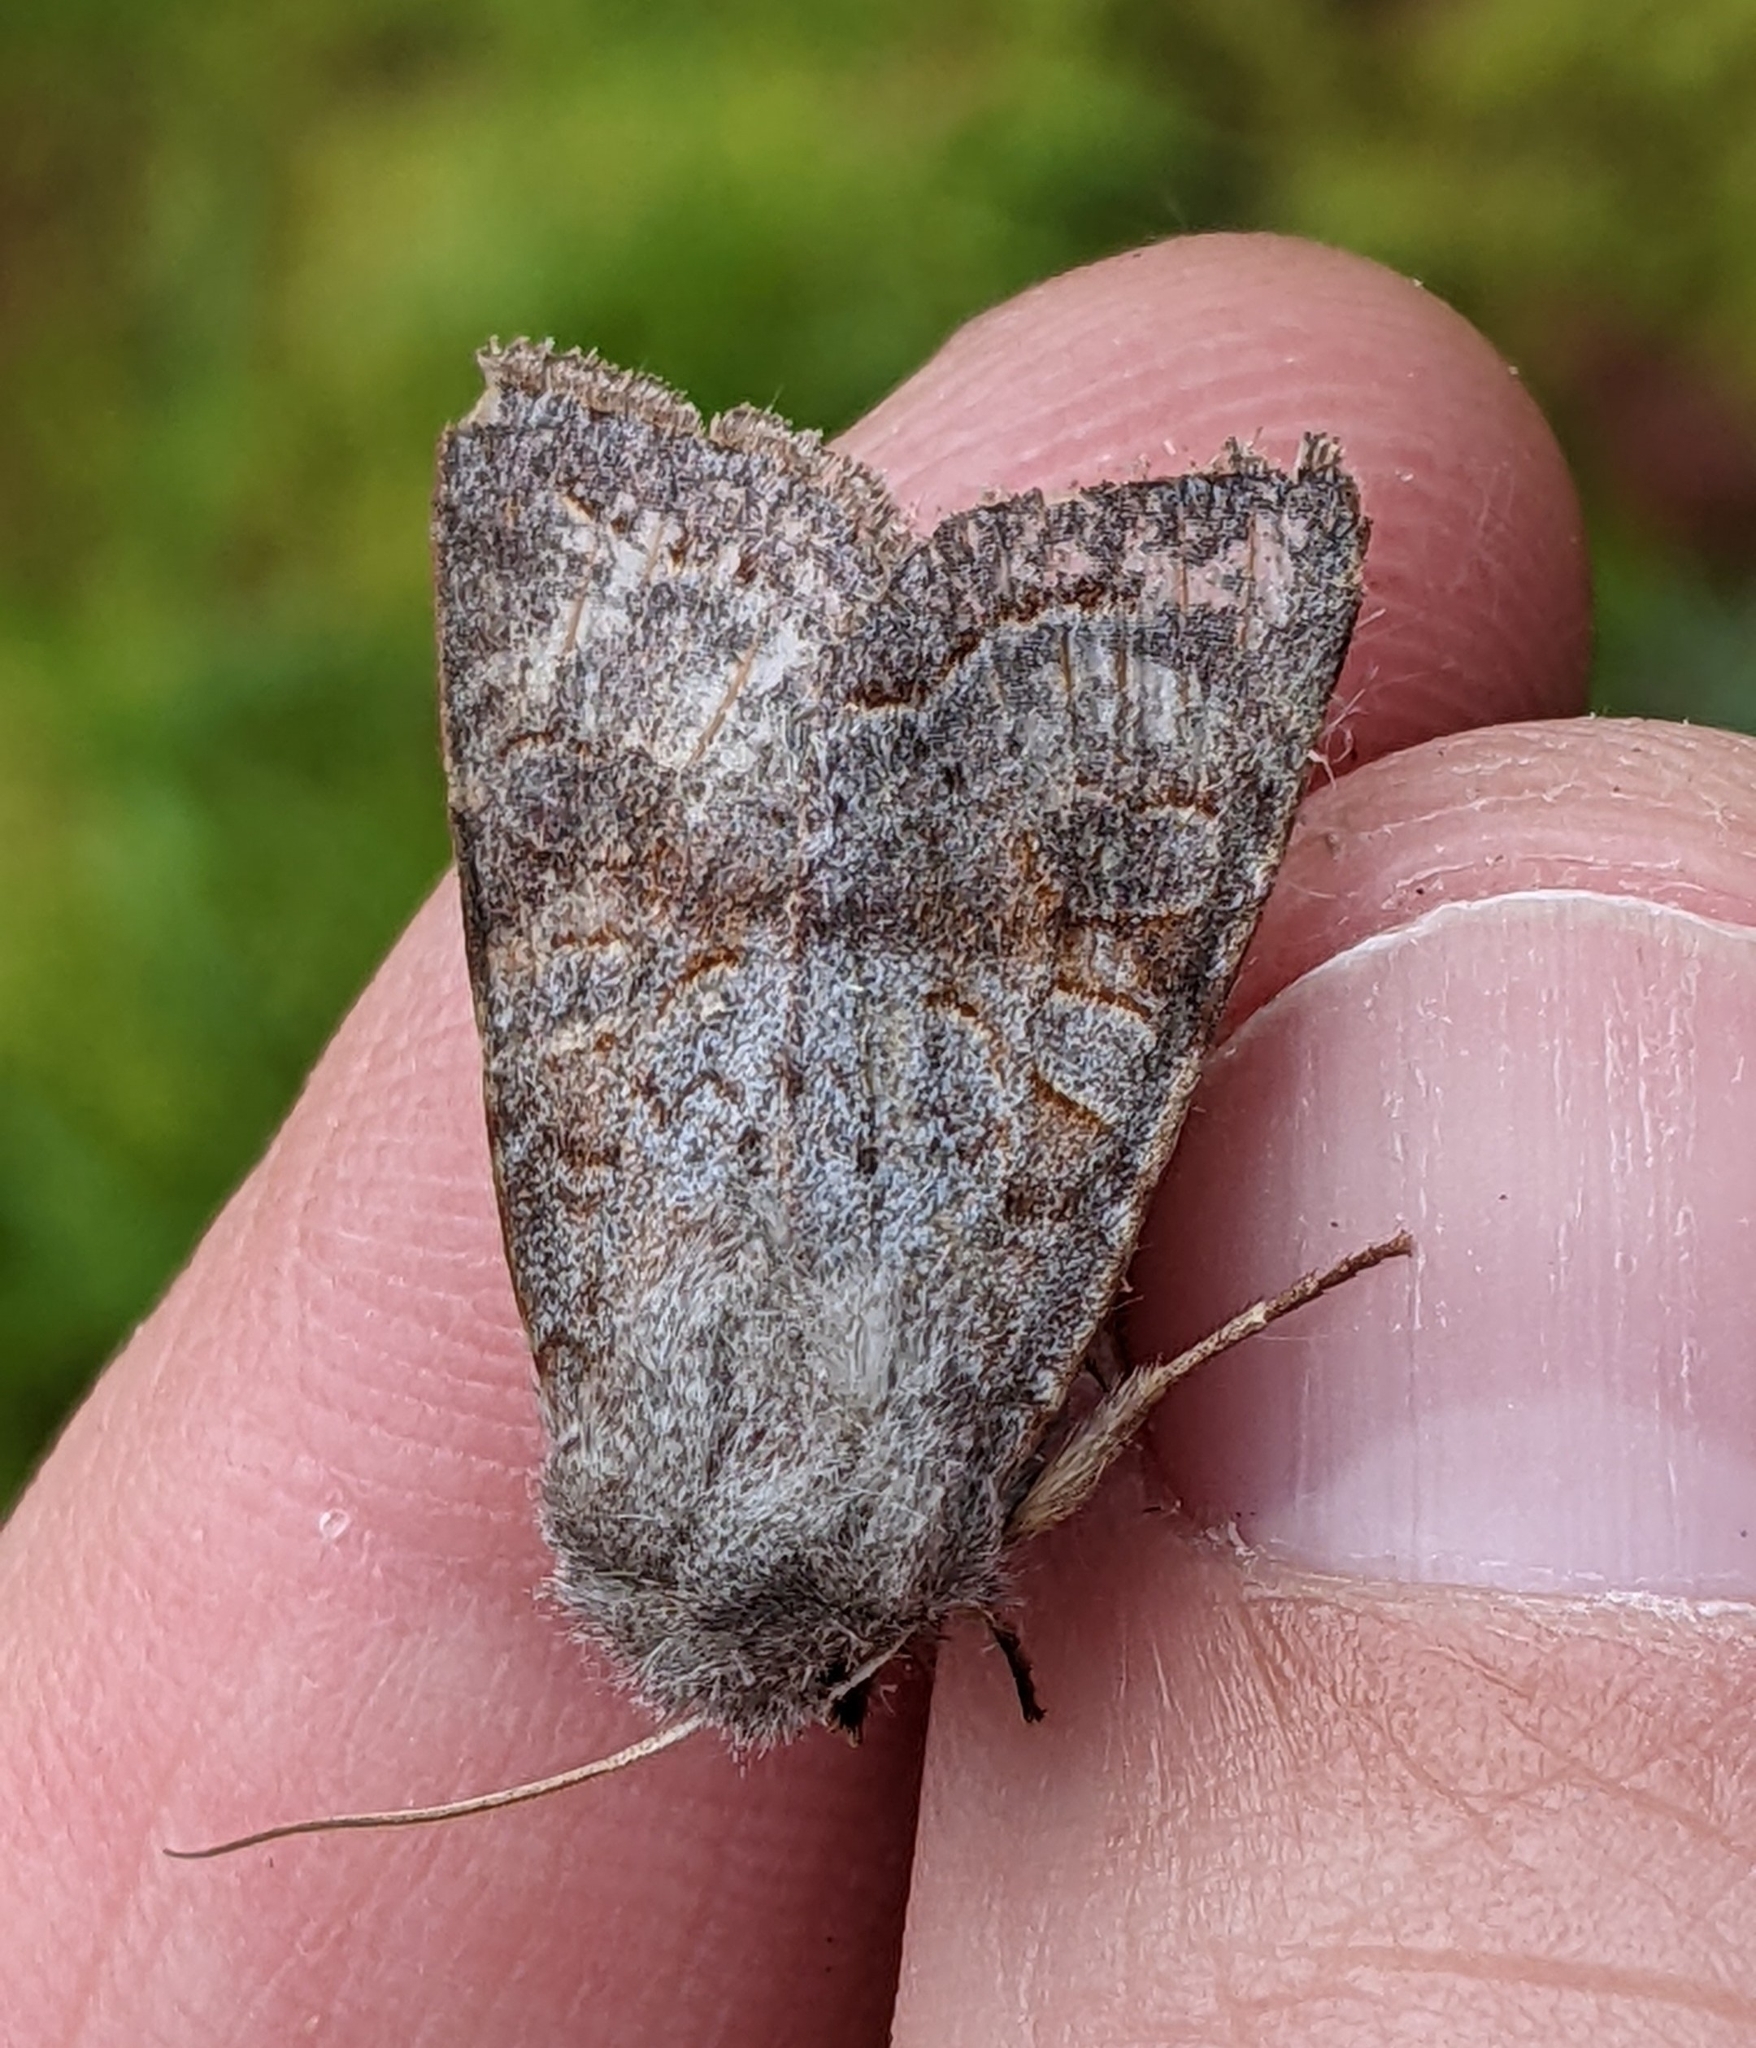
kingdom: Animalia
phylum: Arthropoda
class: Insecta
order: Lepidoptera
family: Noctuidae
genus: Orthosia
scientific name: Orthosia revicta
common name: Rusty whitesided caterpillar
